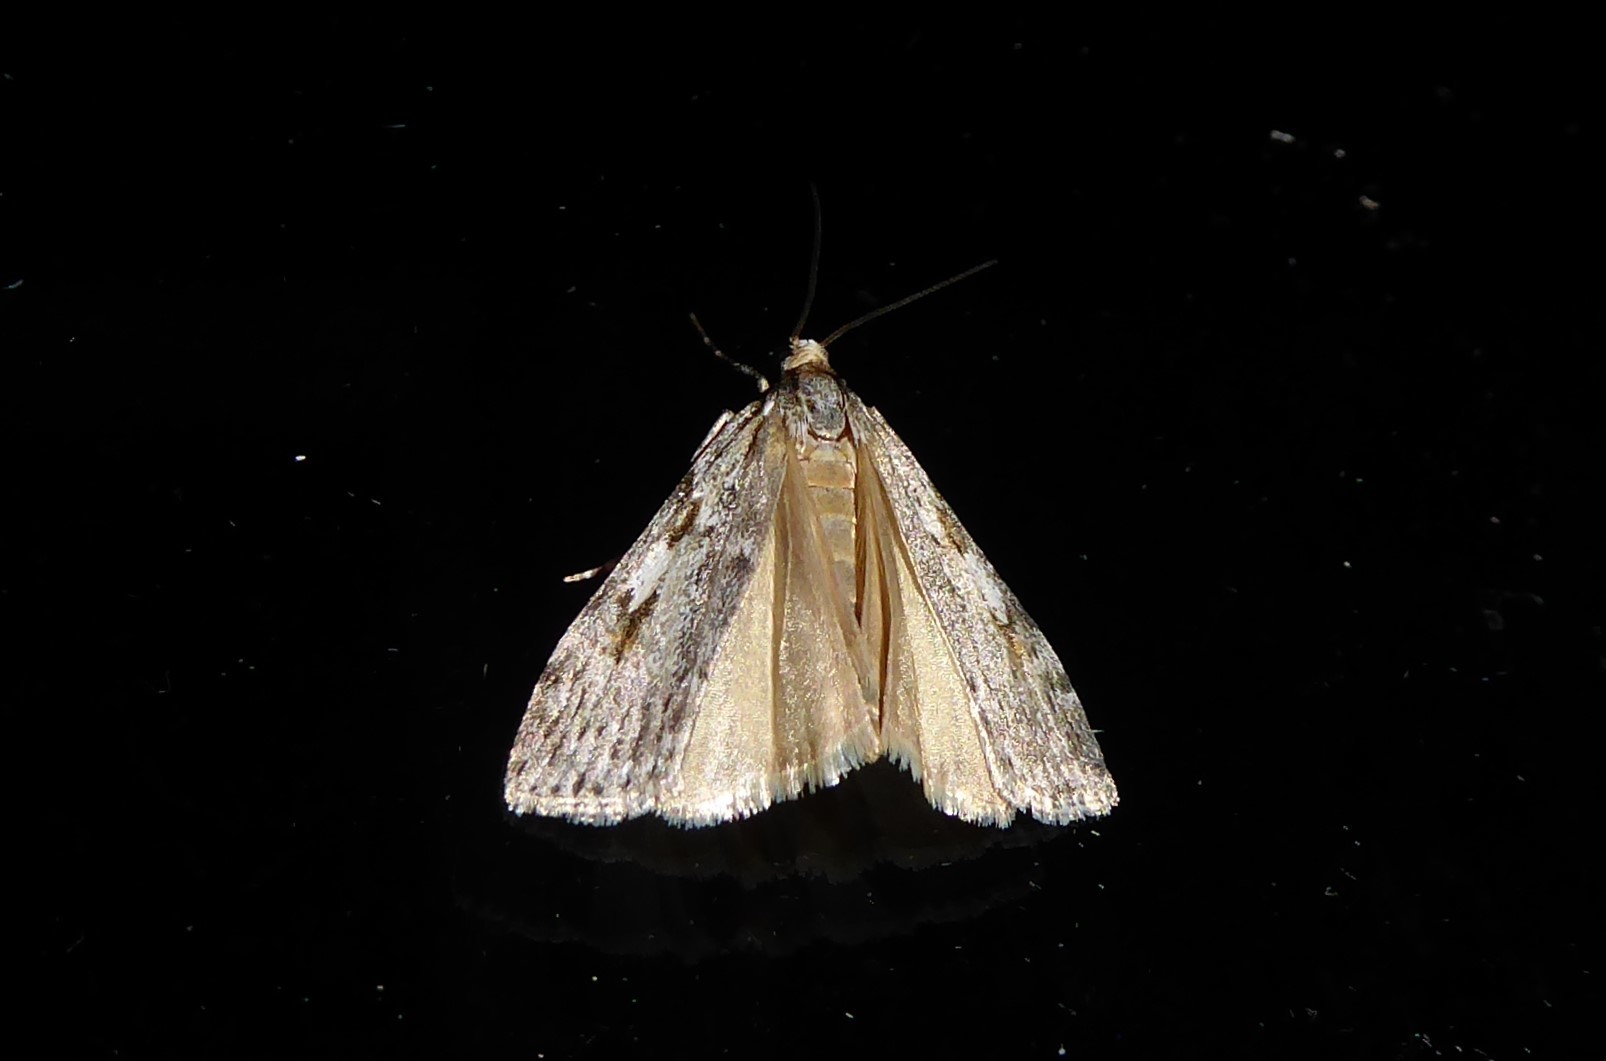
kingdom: Animalia
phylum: Arthropoda
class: Insecta
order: Lepidoptera
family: Crambidae
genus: Scoparia
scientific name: Scoparia halopis
